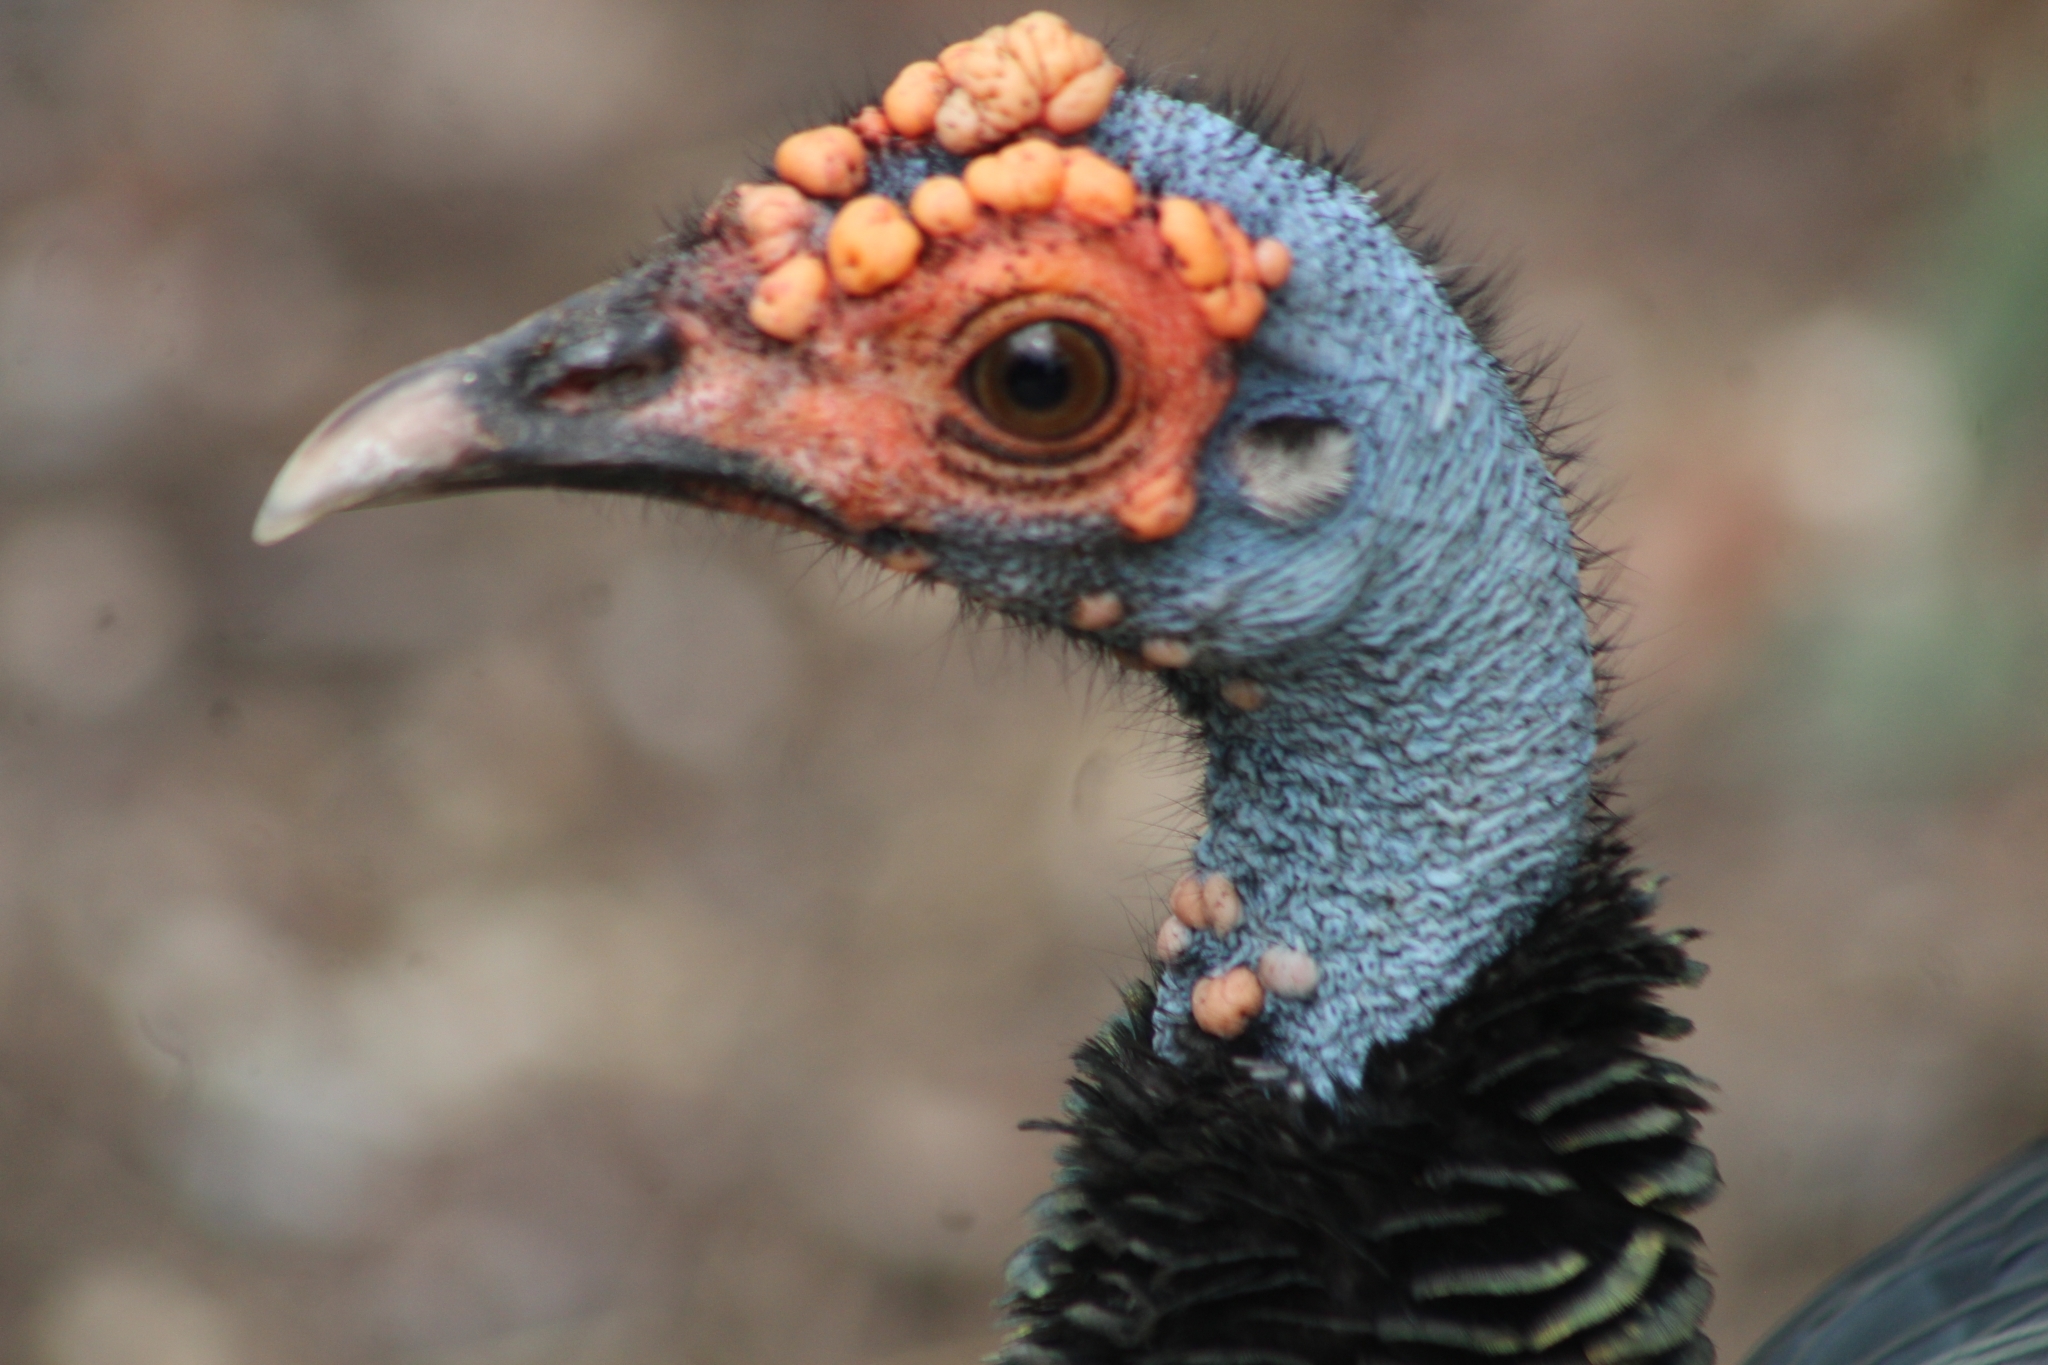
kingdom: Animalia
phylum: Chordata
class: Aves
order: Galliformes
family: Phasianidae
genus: Meleagris
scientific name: Meleagris ocellata
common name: Ocellated turkey
